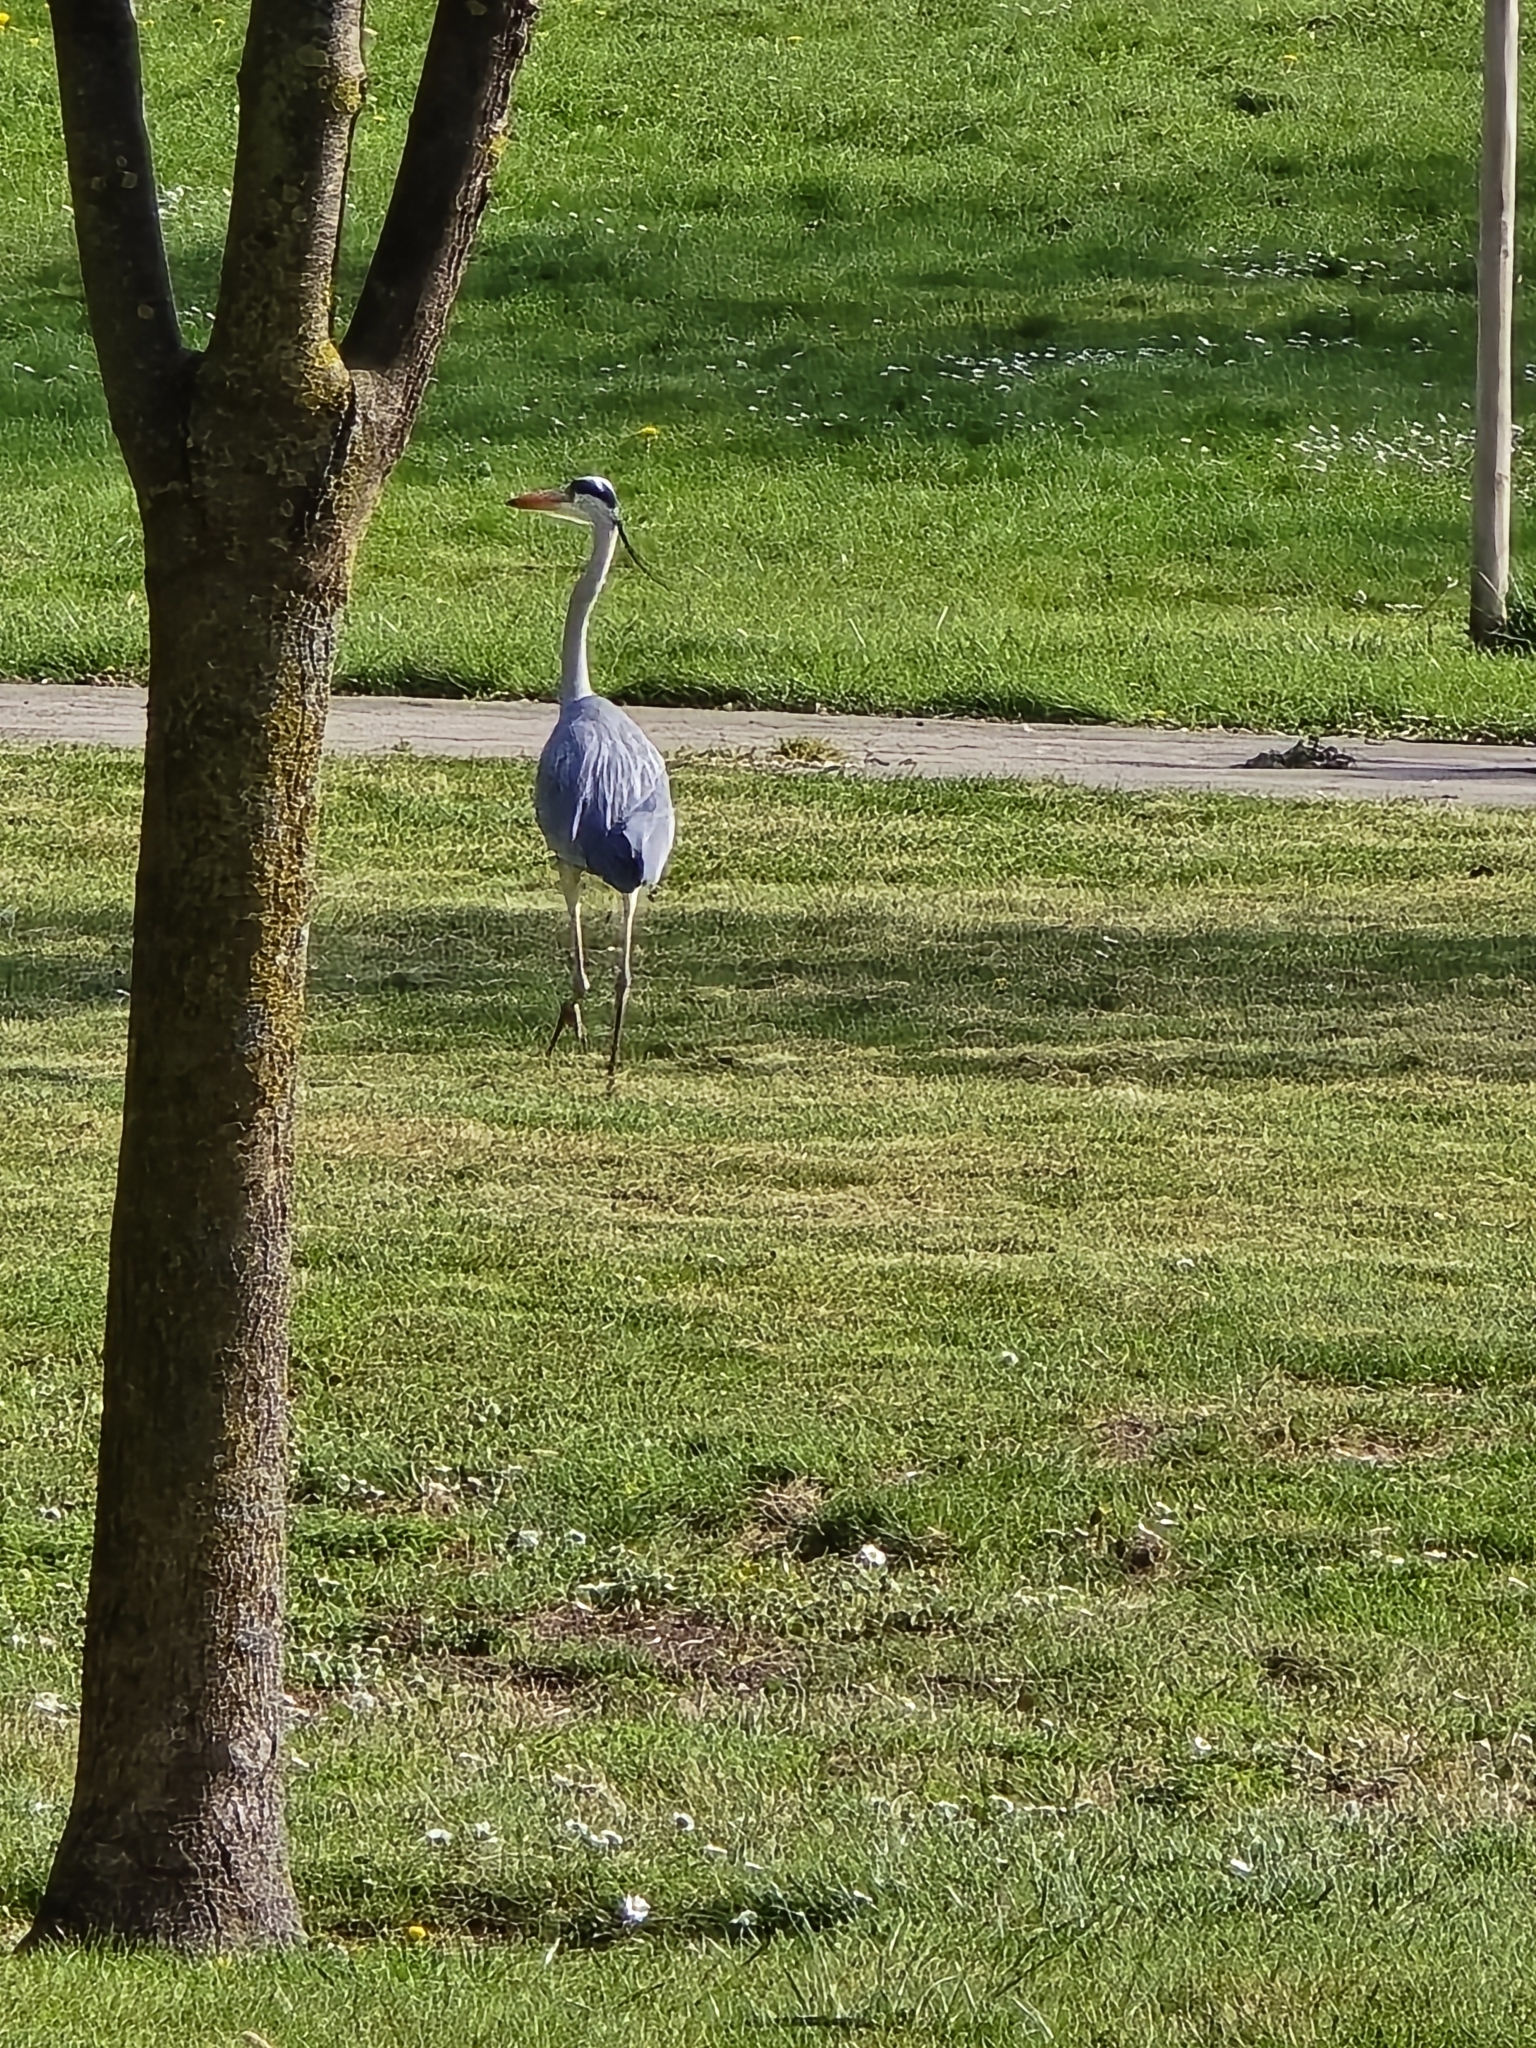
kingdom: Animalia
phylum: Chordata
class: Aves
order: Pelecaniformes
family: Ardeidae
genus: Ardea
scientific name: Ardea cinerea
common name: Grey heron
